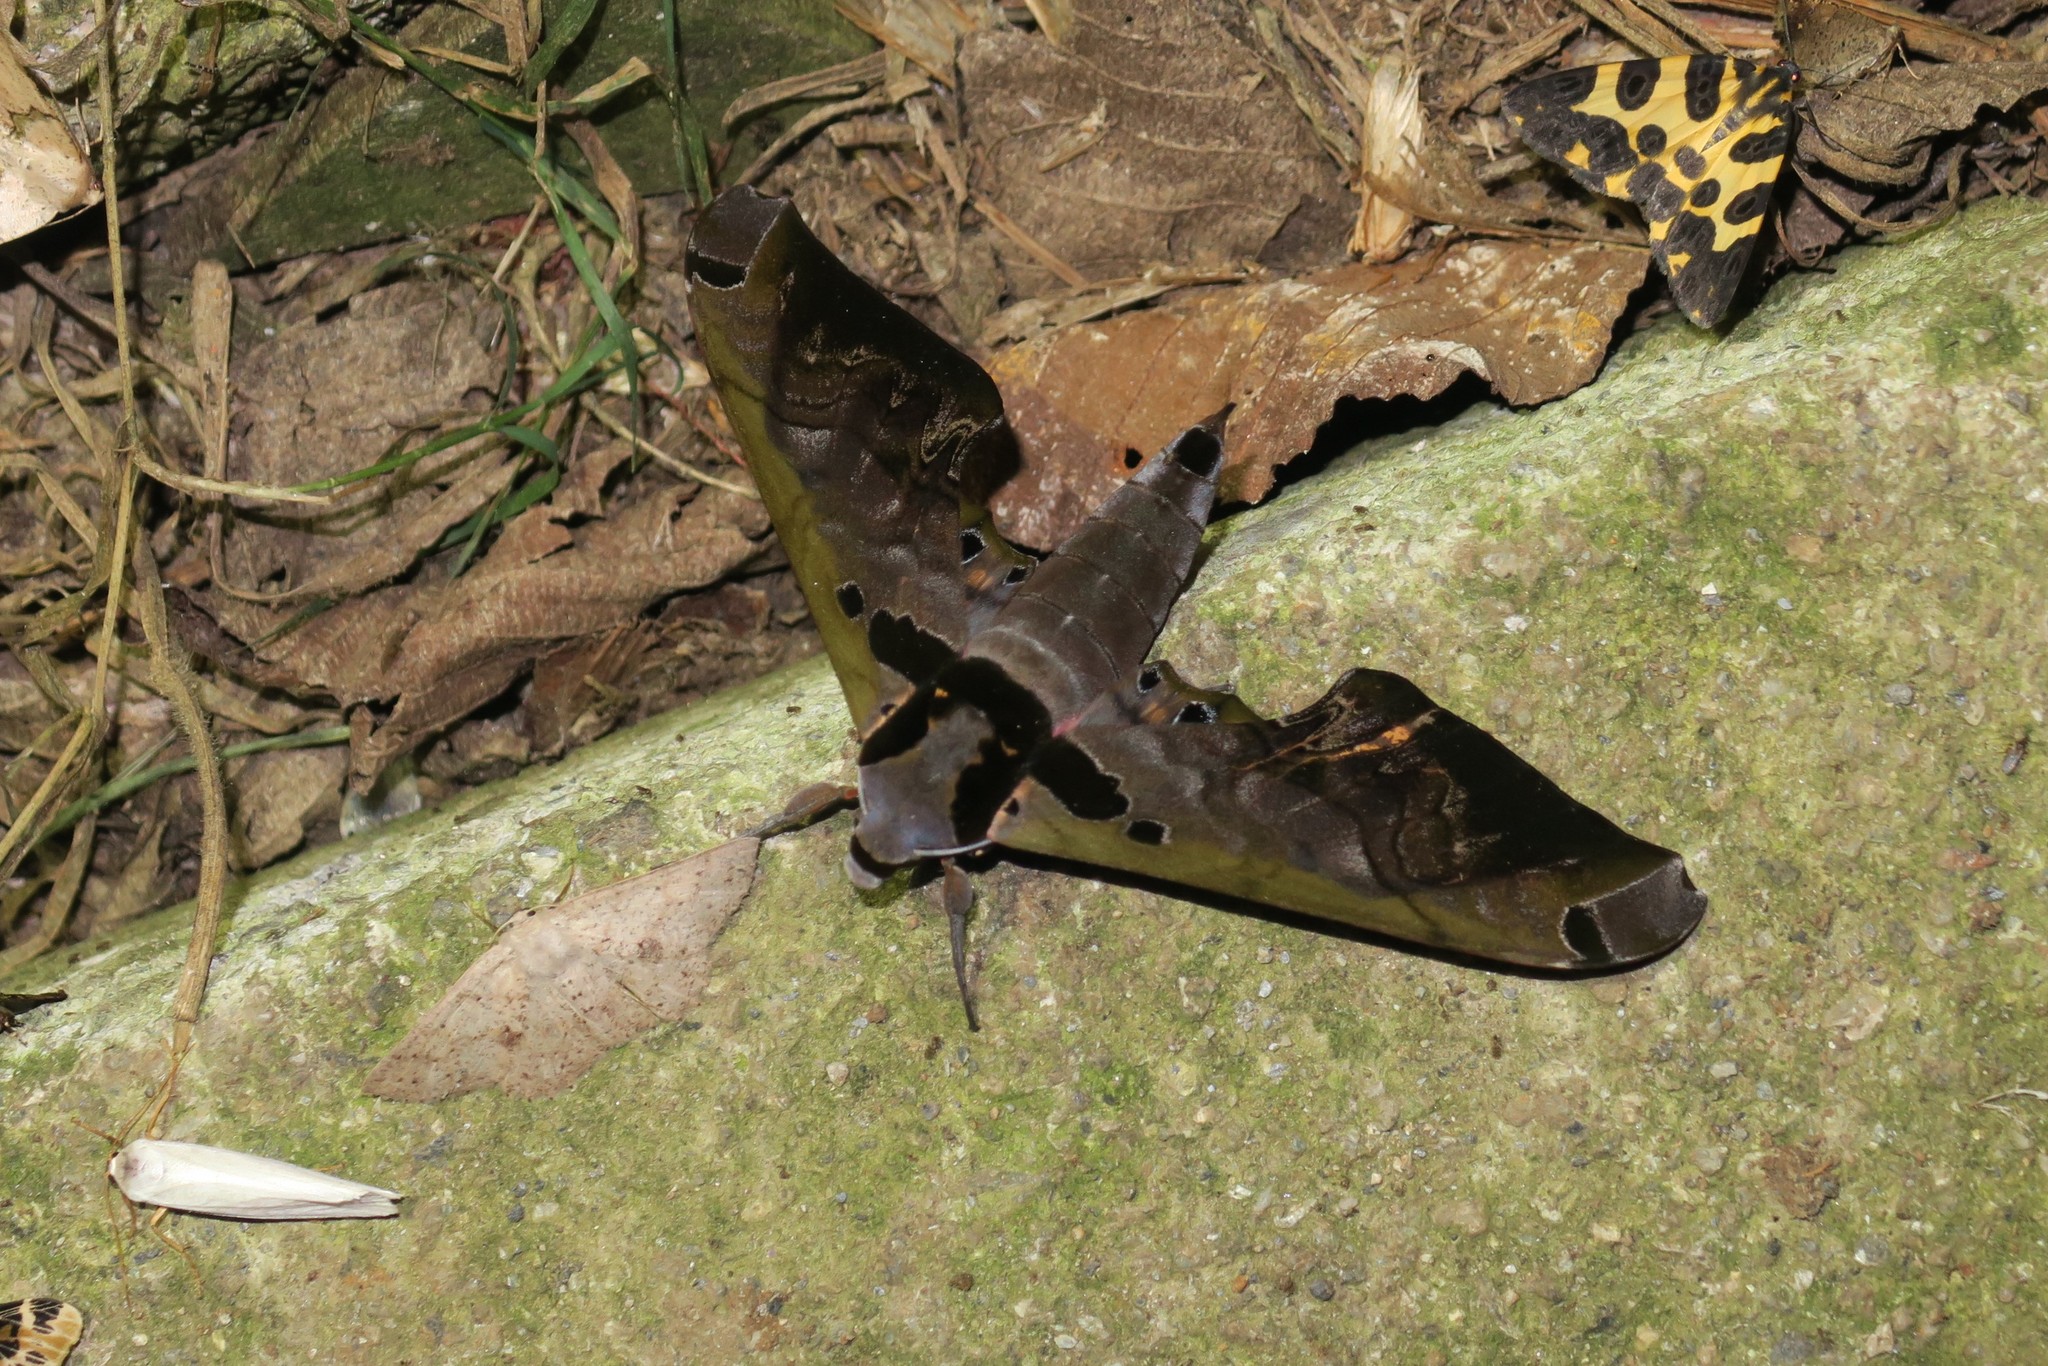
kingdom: Animalia
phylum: Arthropoda
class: Insecta
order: Lepidoptera
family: Sphingidae
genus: Adhemarius
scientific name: Adhemarius sexoculata
